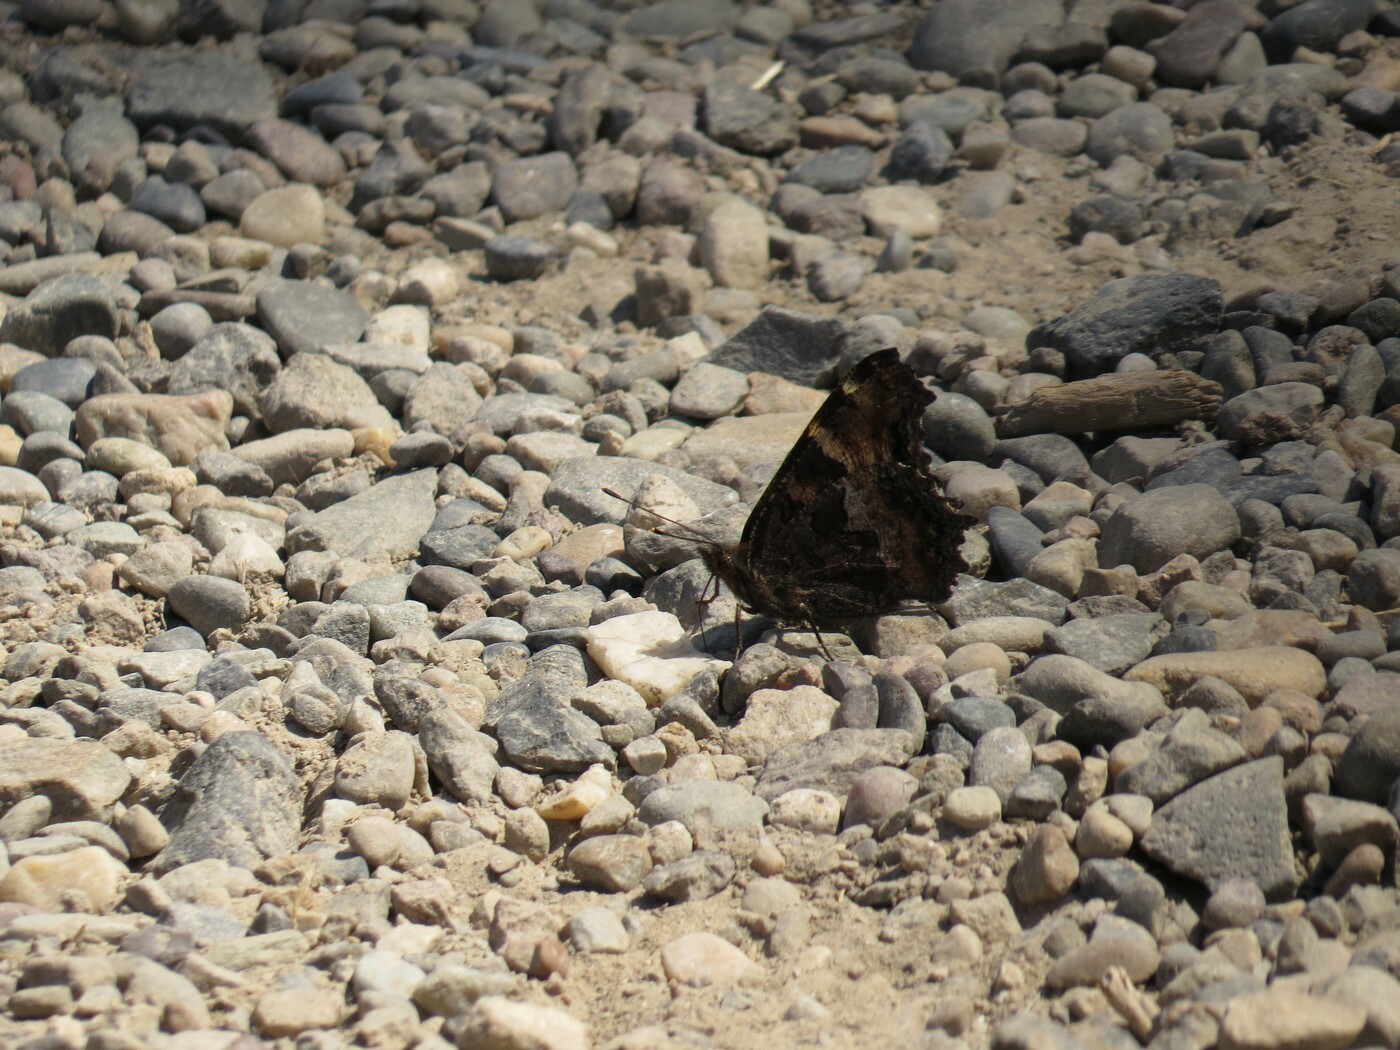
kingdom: Animalia
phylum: Arthropoda
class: Insecta
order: Lepidoptera
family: Nymphalidae
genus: Nymphalis
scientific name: Nymphalis californica
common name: California tortoiseshell
